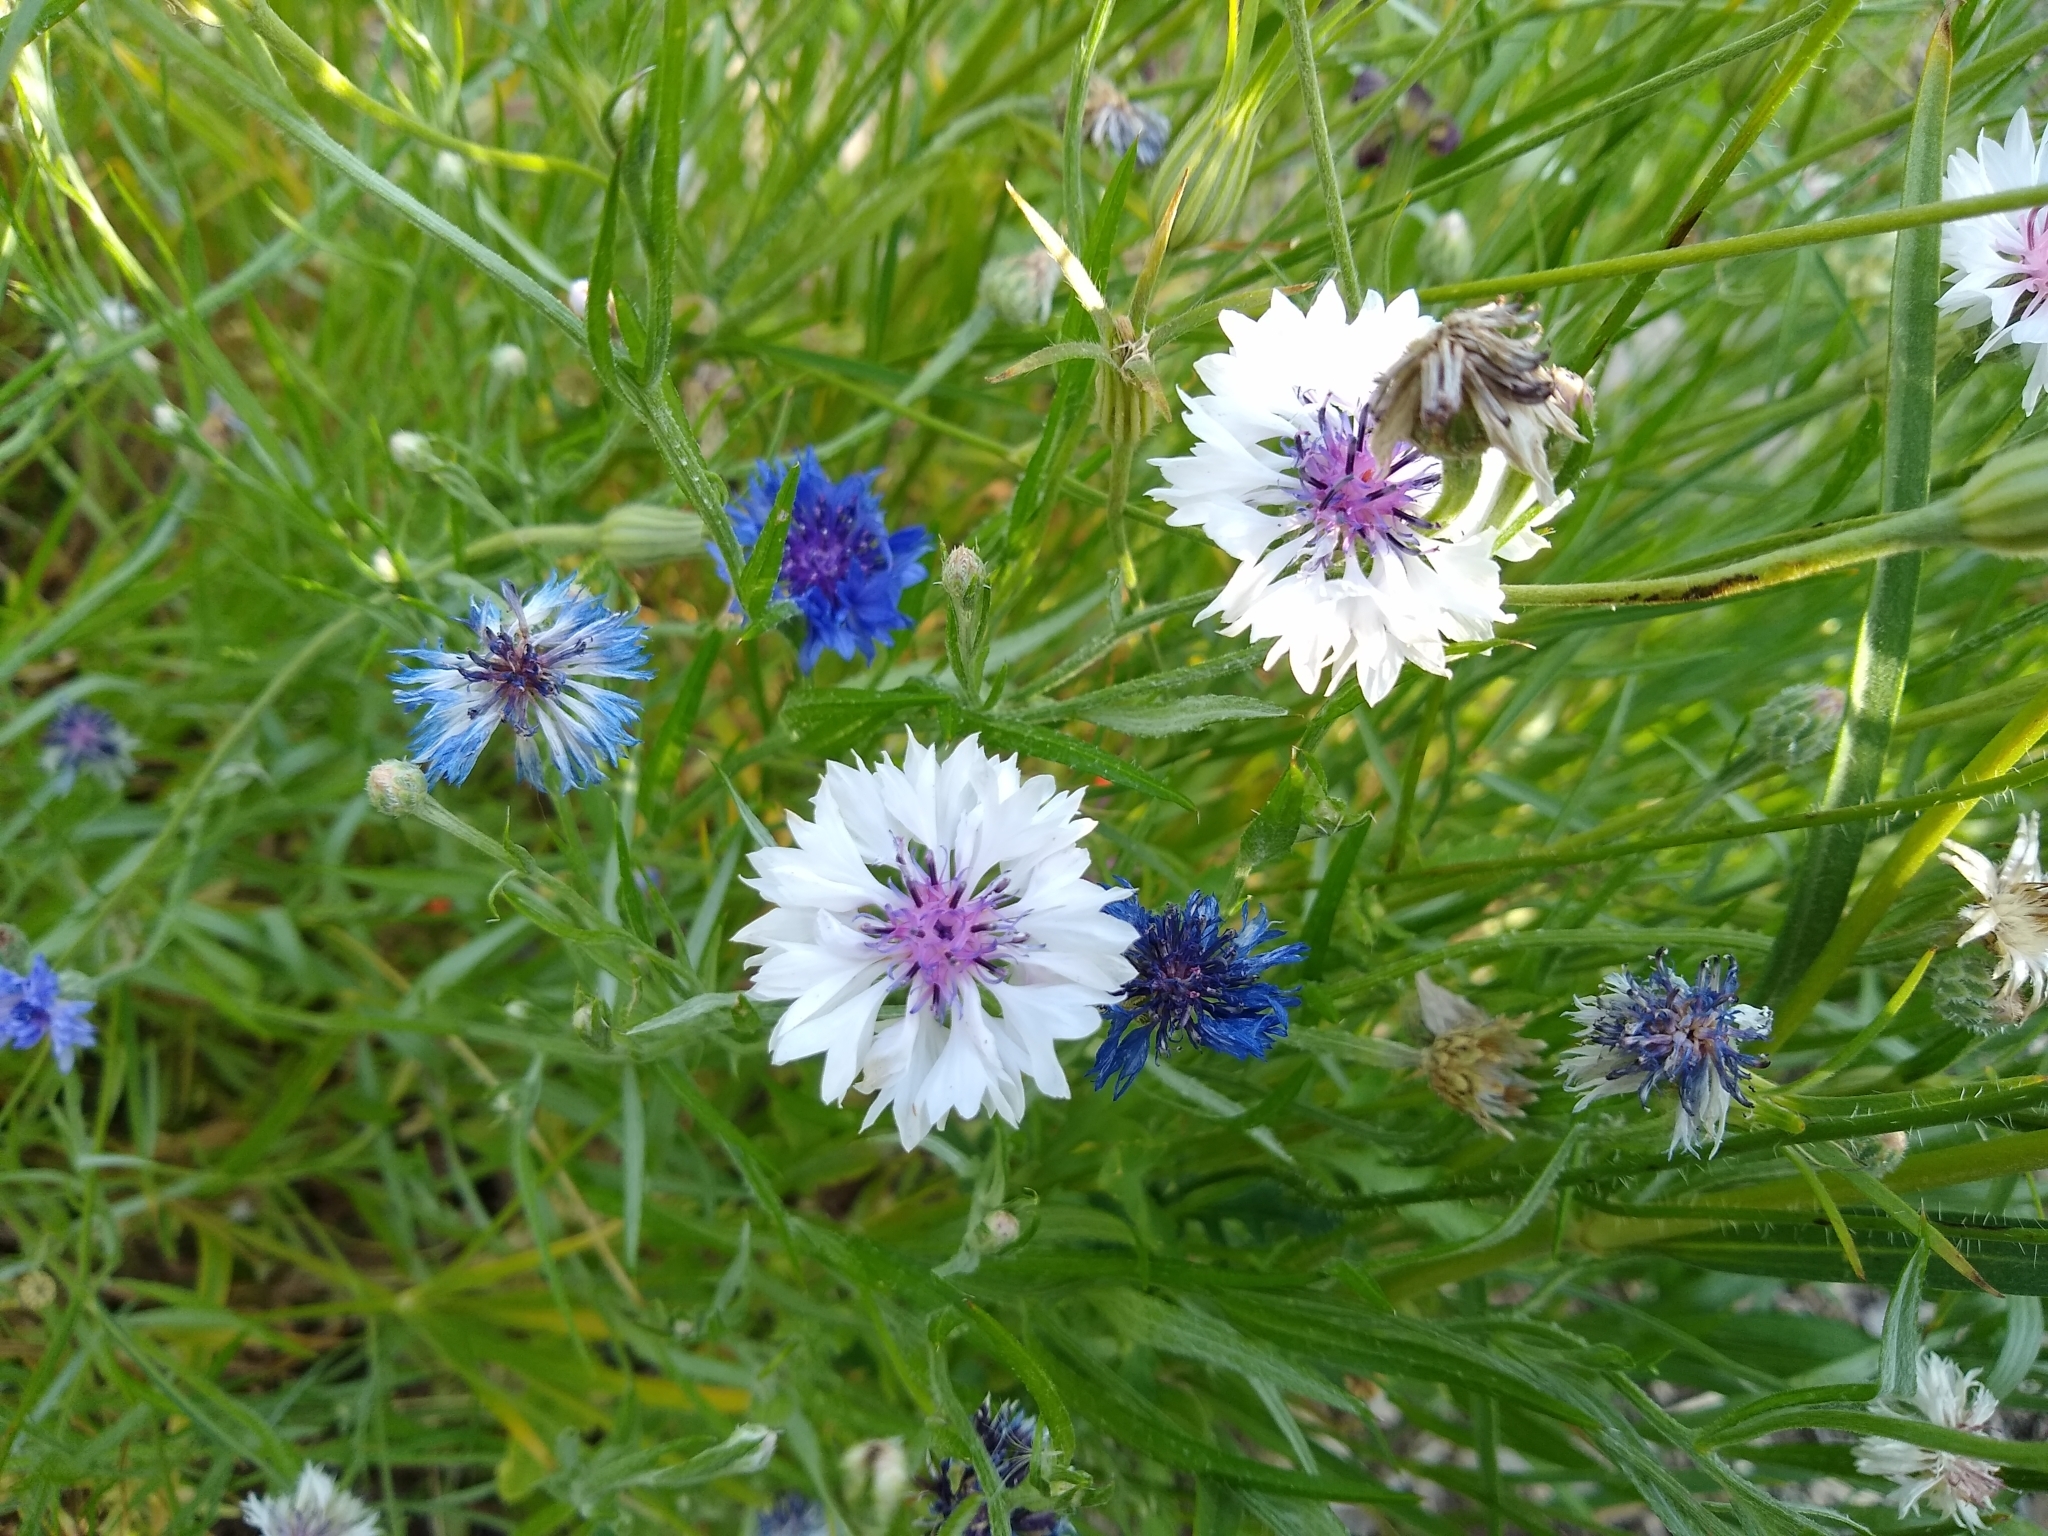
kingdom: Plantae
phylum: Tracheophyta
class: Magnoliopsida
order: Asterales
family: Asteraceae
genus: Centaurea
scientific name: Centaurea cyanus
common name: Cornflower
